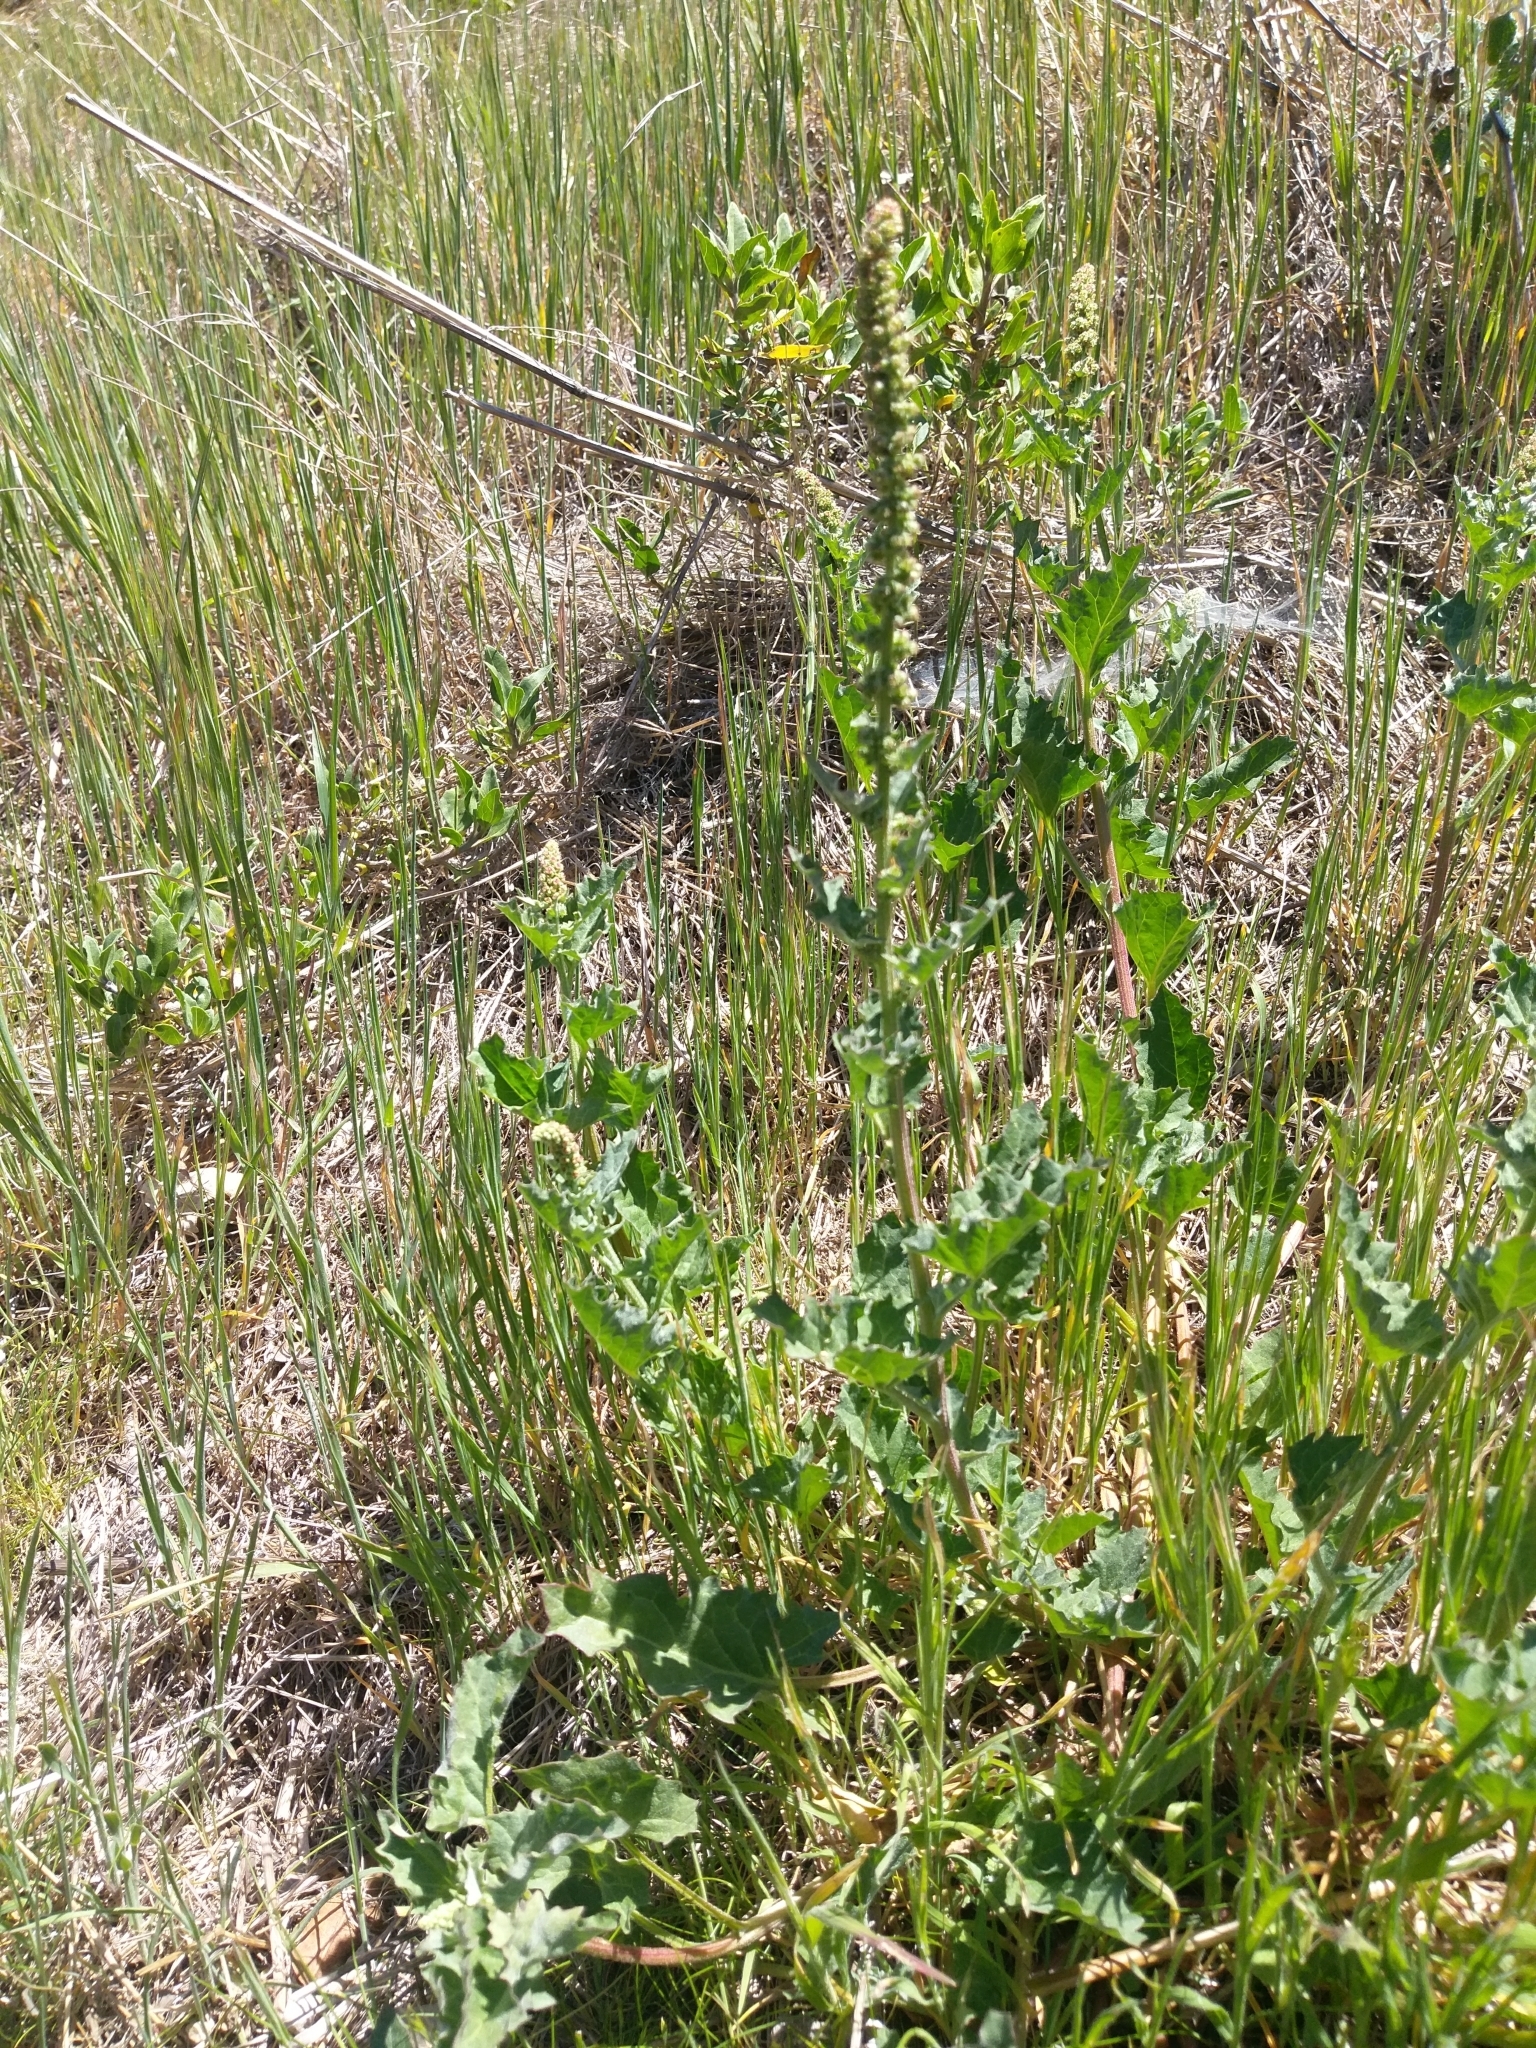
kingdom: Plantae
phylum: Tracheophyta
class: Magnoliopsida
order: Caryophyllales
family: Amaranthaceae
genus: Blitum
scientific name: Blitum californicum
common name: California goosefoot
